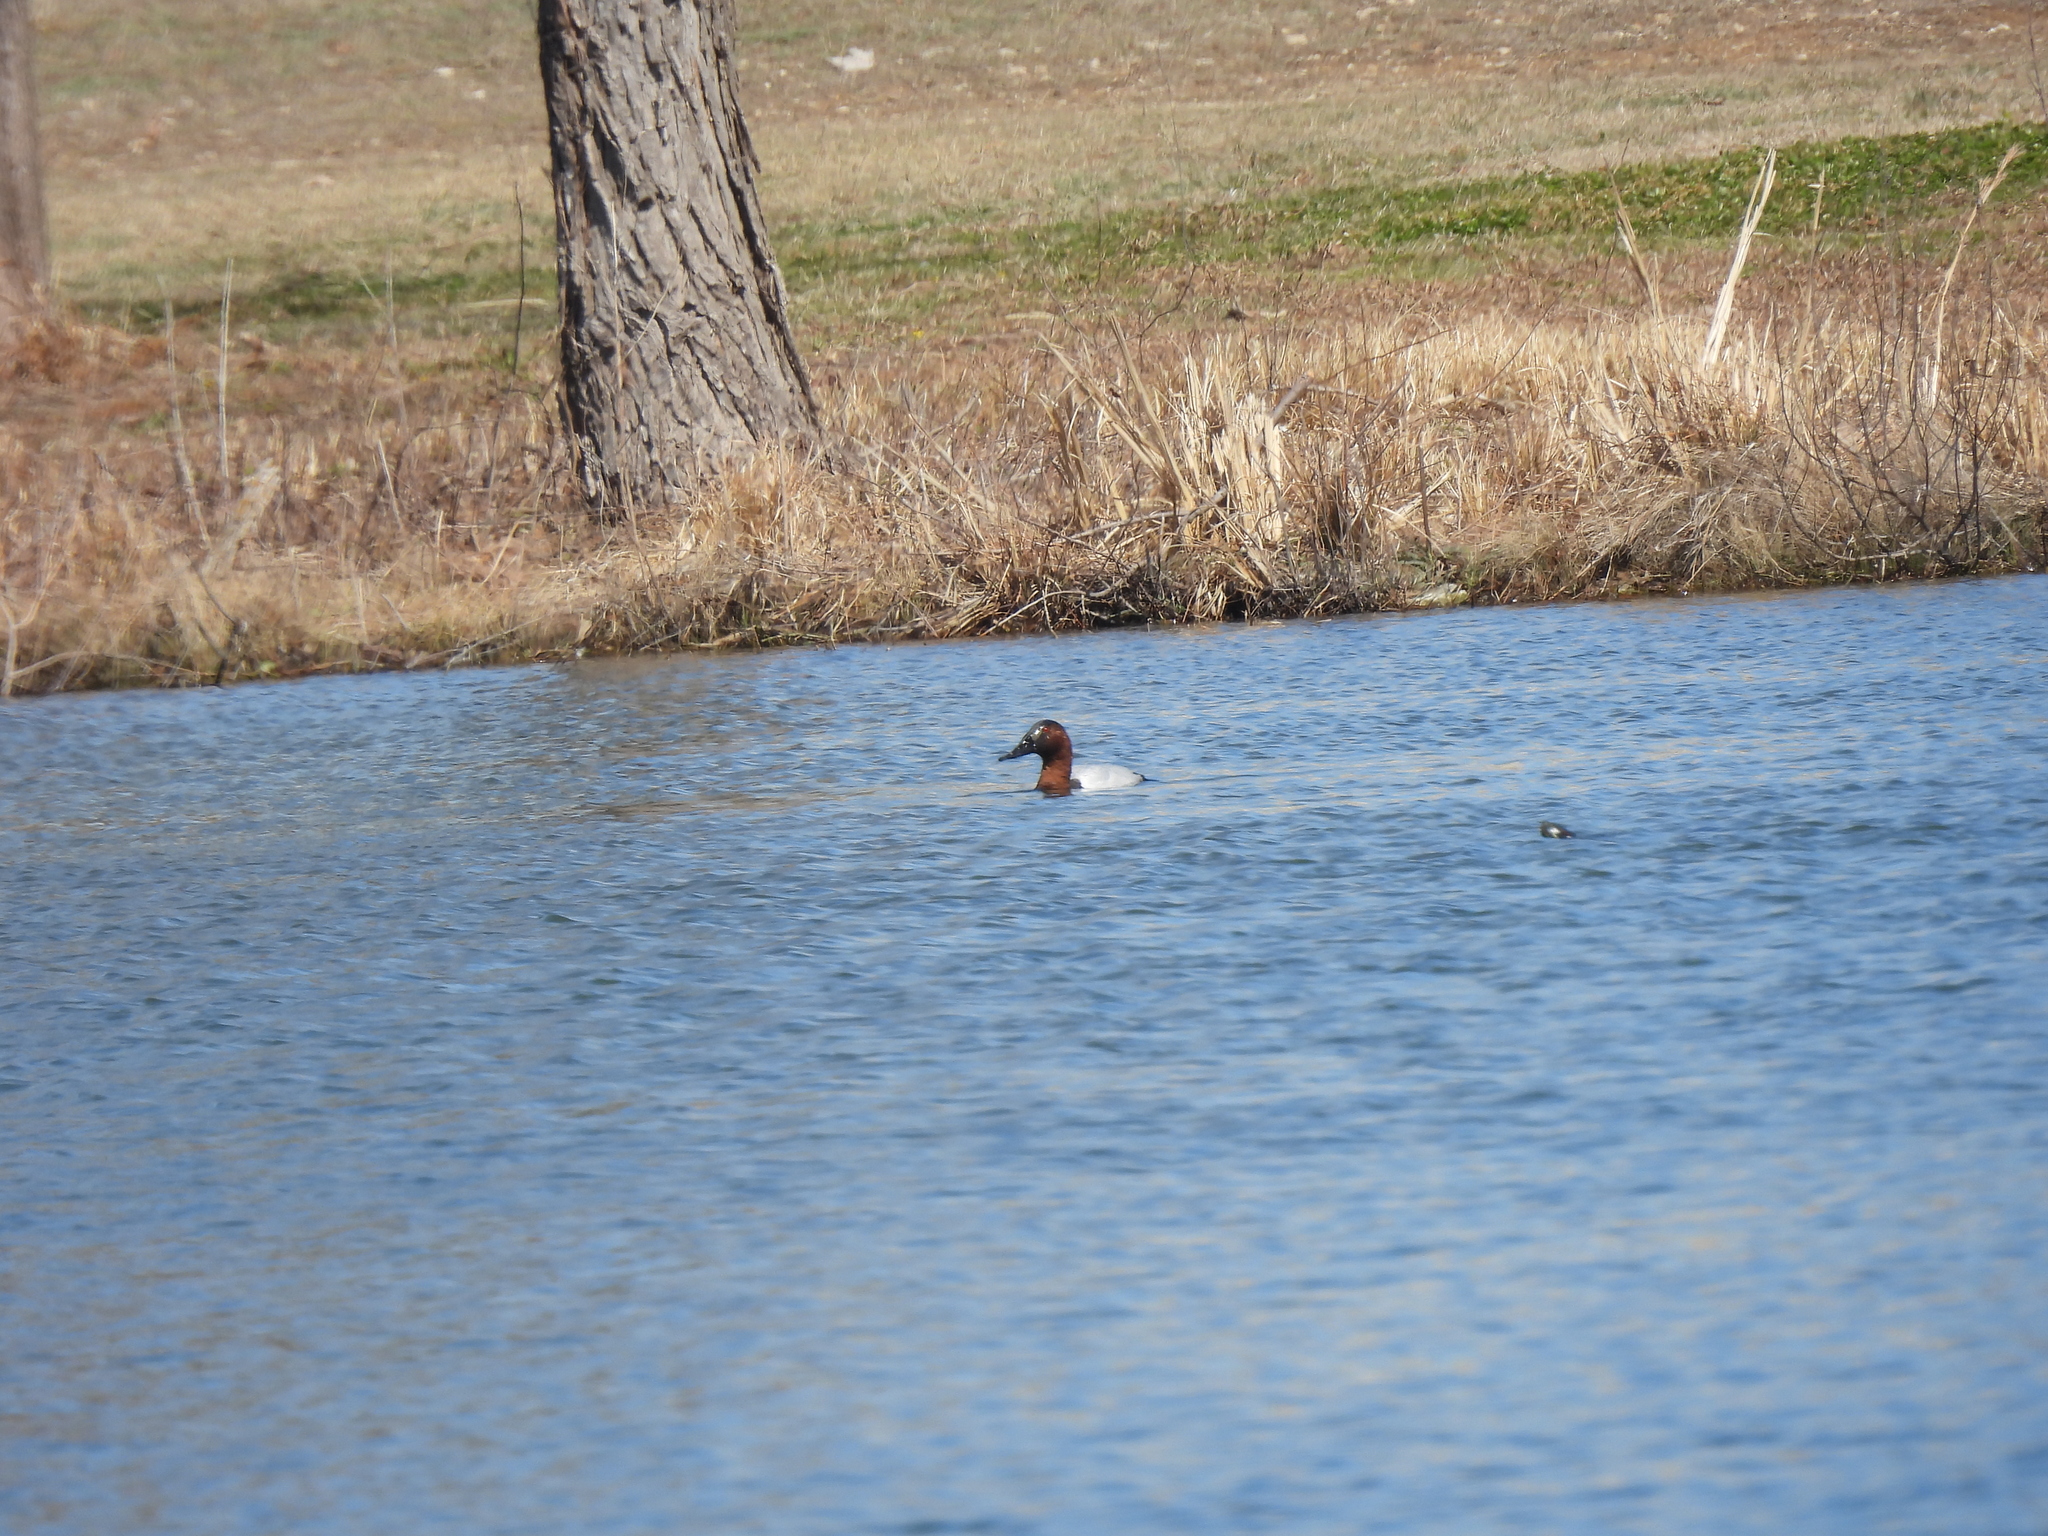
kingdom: Animalia
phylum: Chordata
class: Aves
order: Anseriformes
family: Anatidae
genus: Aythya
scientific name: Aythya valisineria
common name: Canvasback
